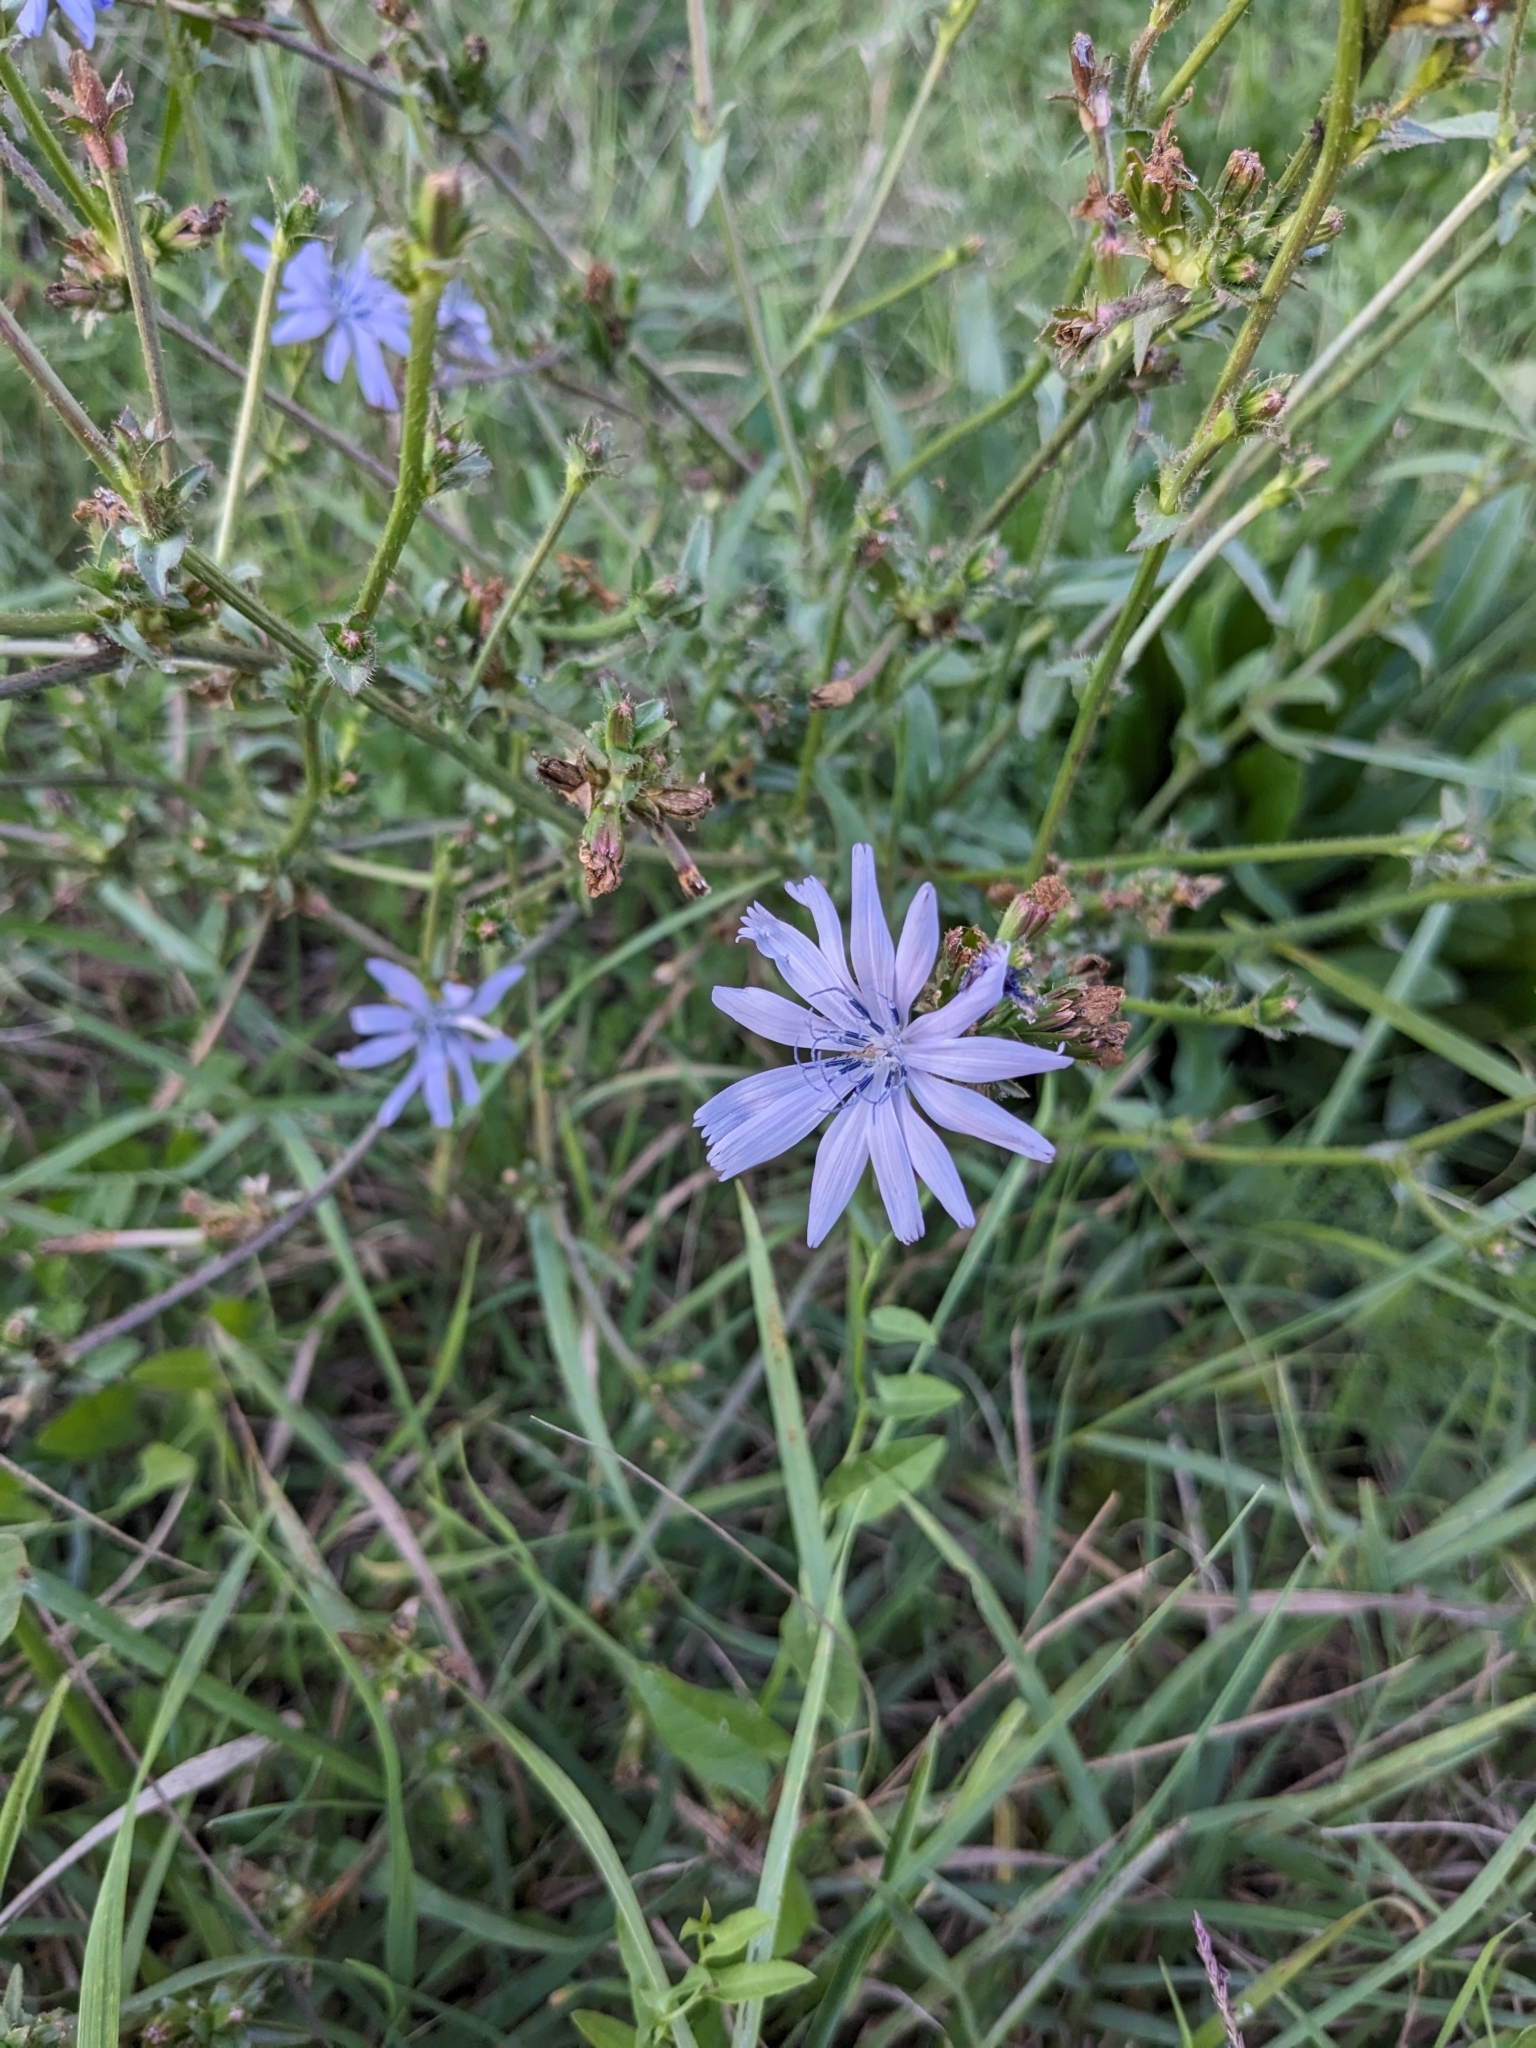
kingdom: Plantae
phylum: Tracheophyta
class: Magnoliopsida
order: Asterales
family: Asteraceae
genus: Cichorium
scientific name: Cichorium intybus
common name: Chicory
